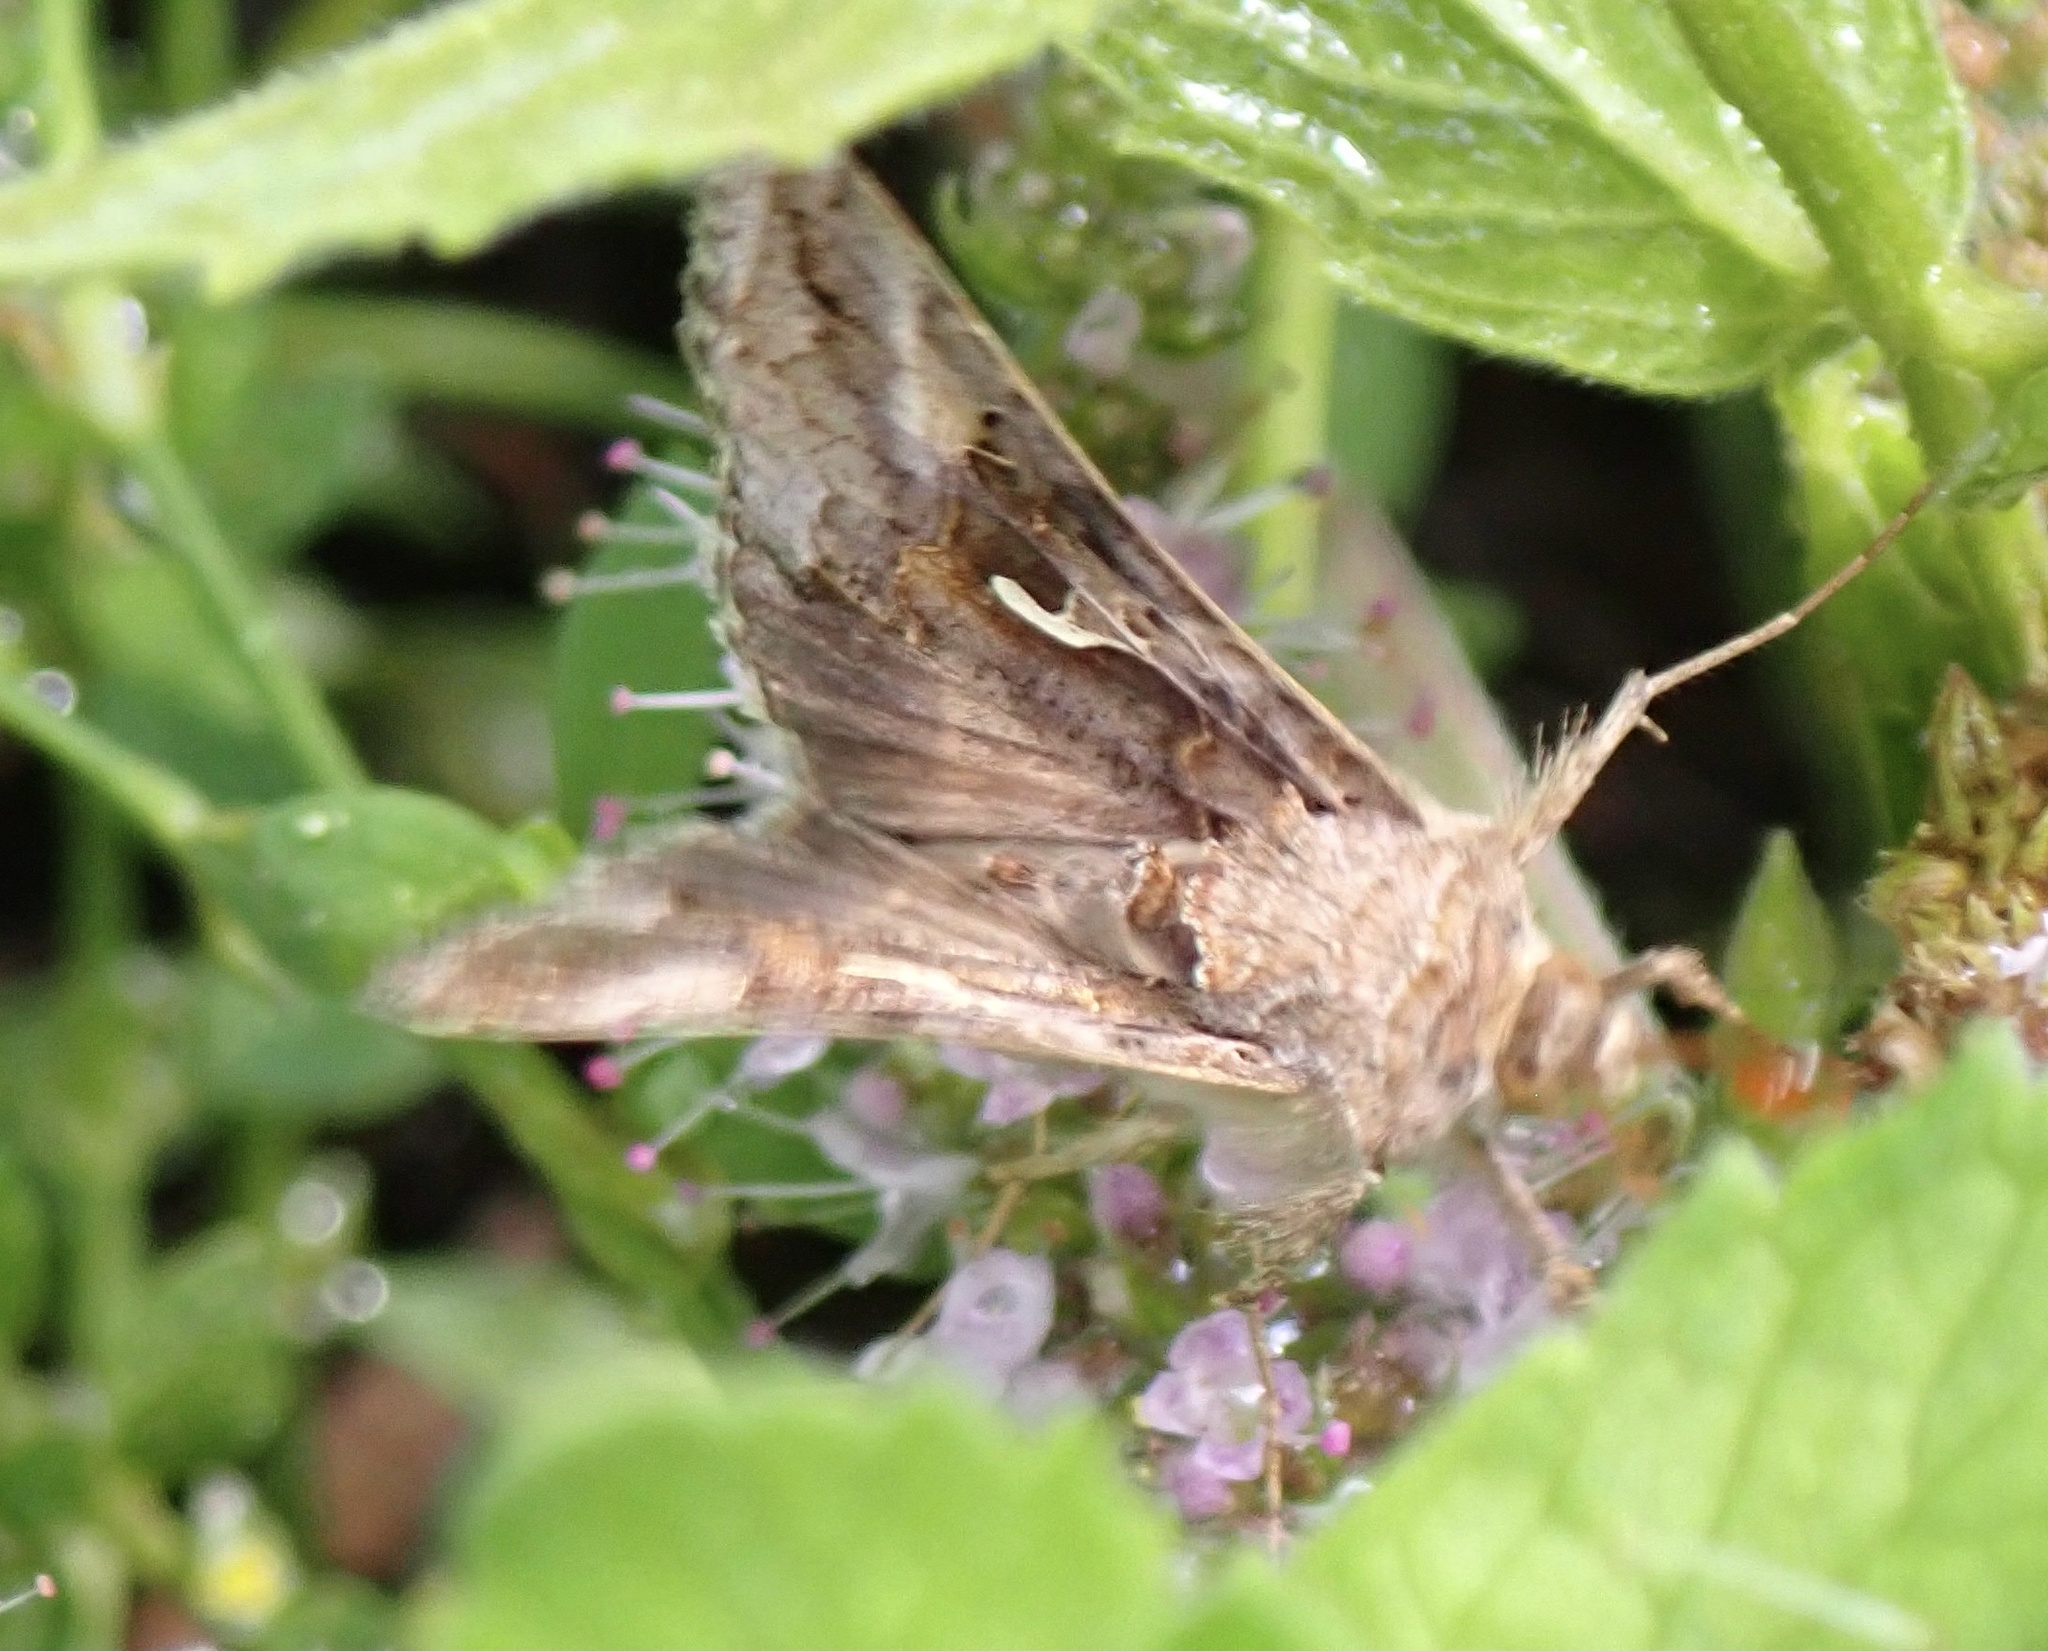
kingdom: Animalia
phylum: Arthropoda
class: Insecta
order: Lepidoptera
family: Noctuidae
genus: Autographa
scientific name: Autographa gamma
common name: Silver y
